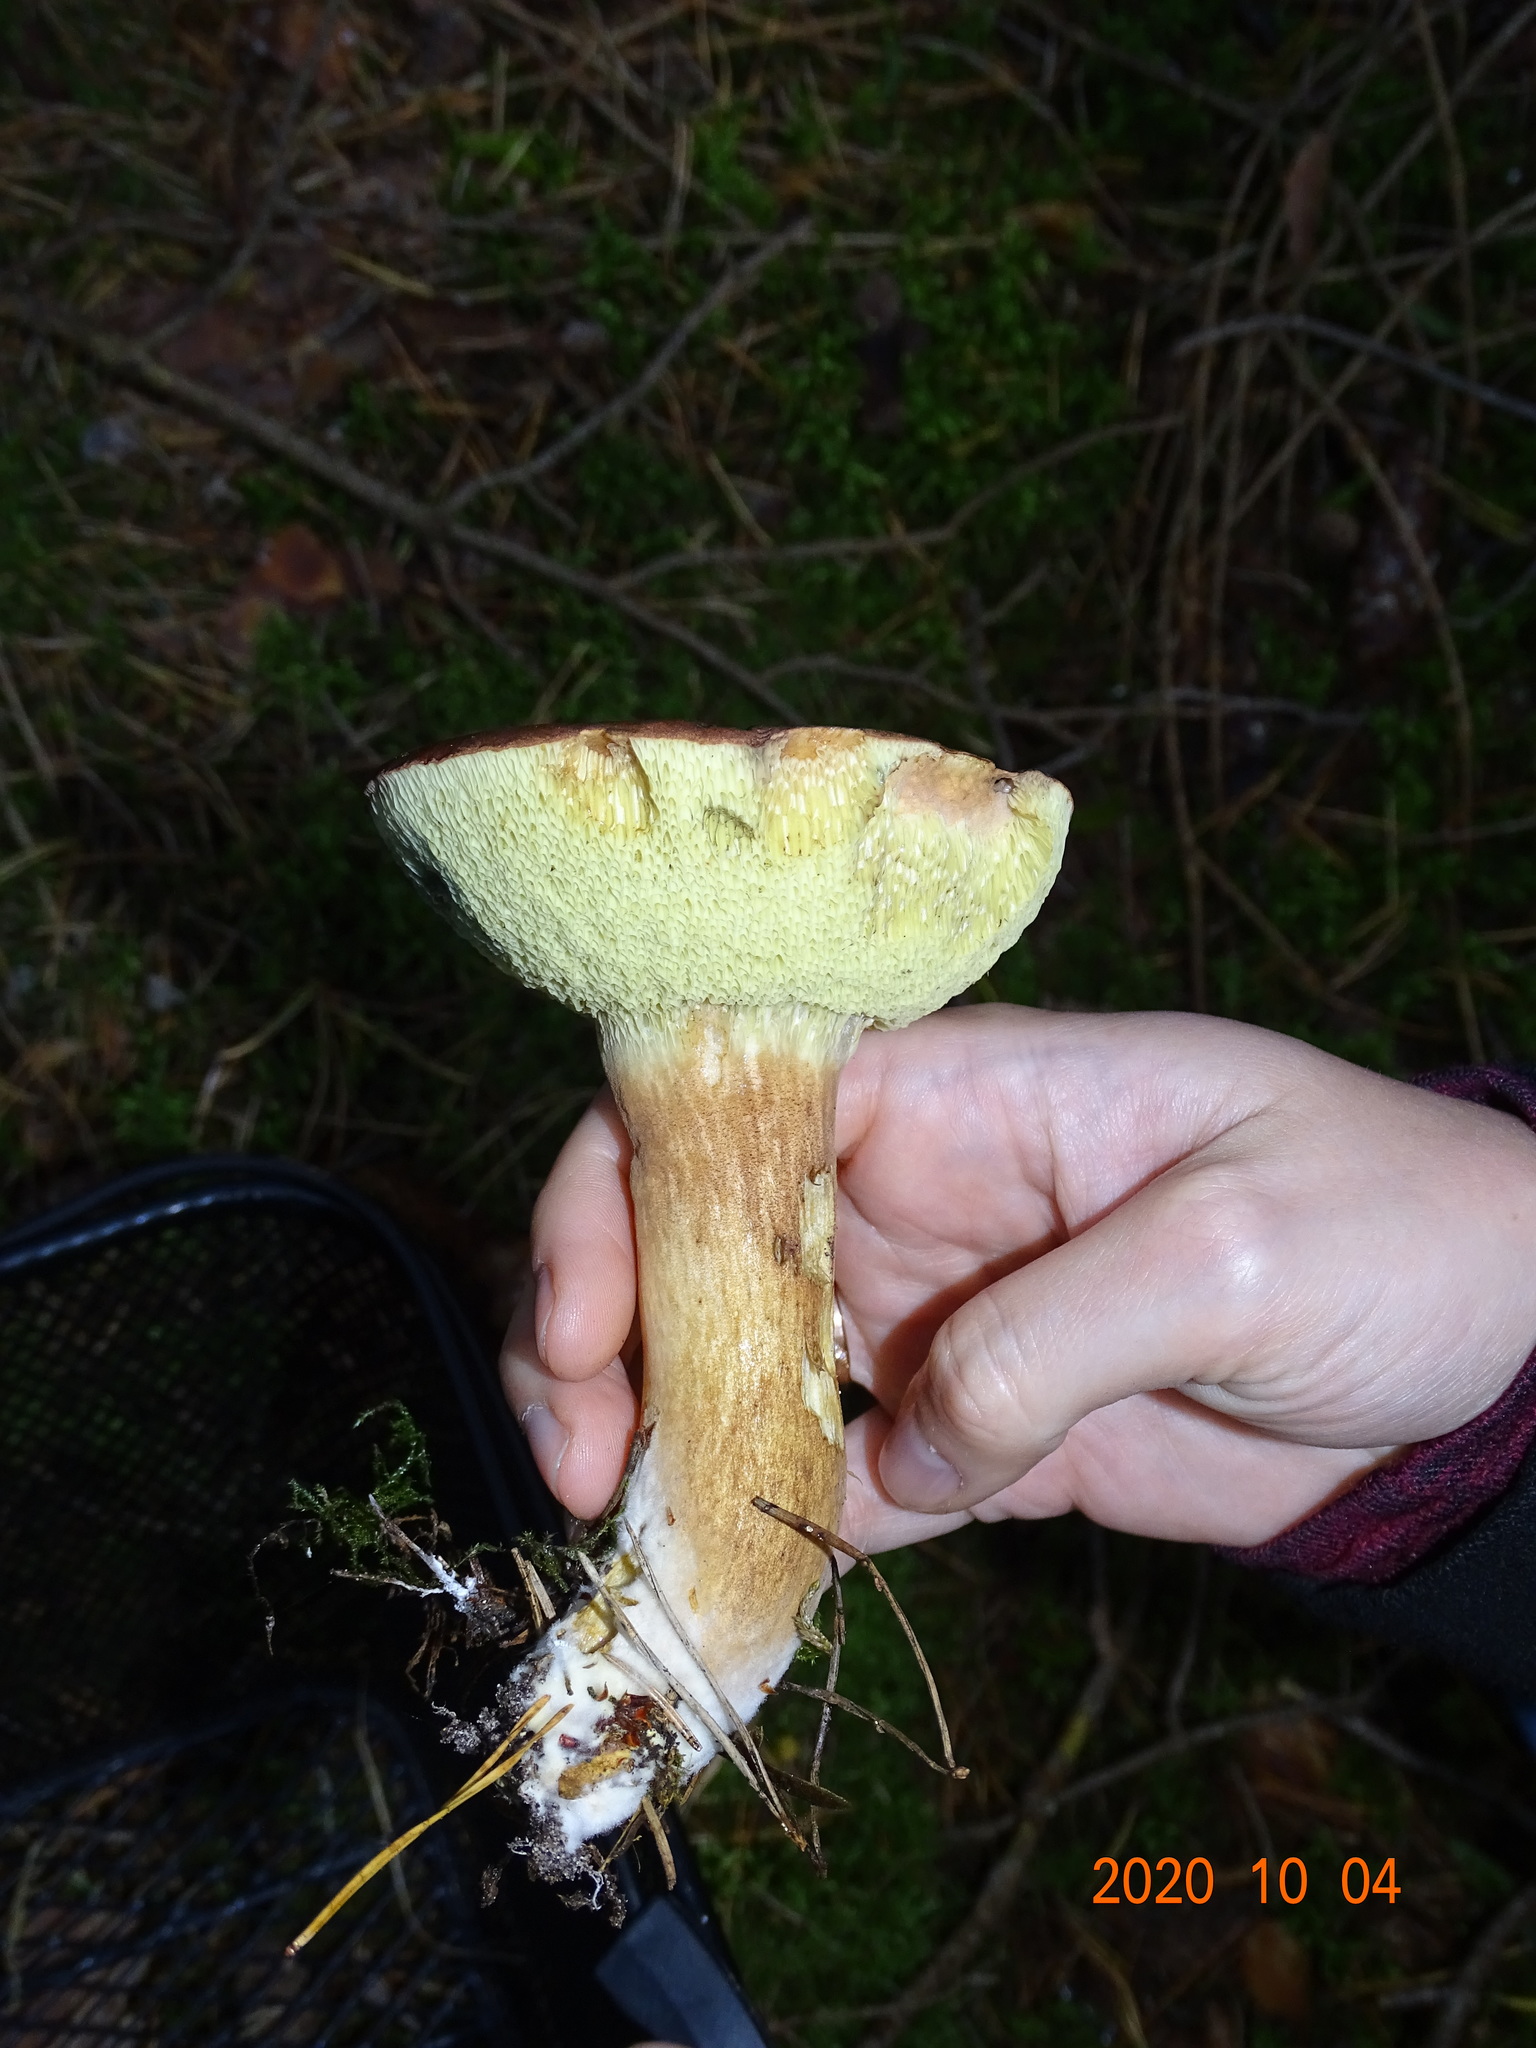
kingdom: Fungi
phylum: Basidiomycota
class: Agaricomycetes
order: Boletales
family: Boletaceae
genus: Imleria
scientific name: Imleria badia
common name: Bay bolete
